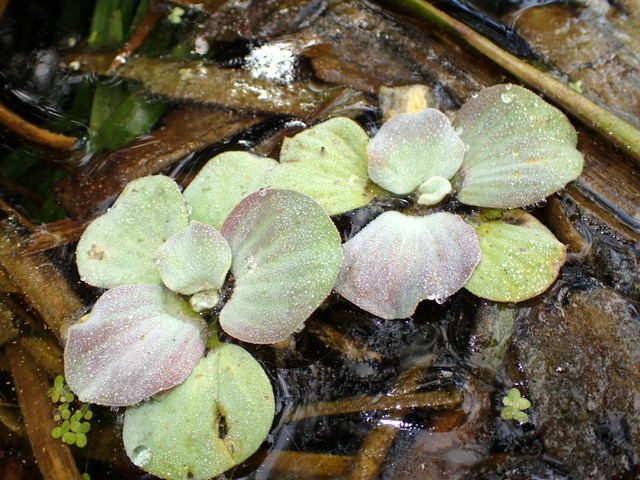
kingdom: Plantae
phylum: Tracheophyta
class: Liliopsida
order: Alismatales
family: Araceae
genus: Pistia
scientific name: Pistia stratiotes
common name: Water lettuce
